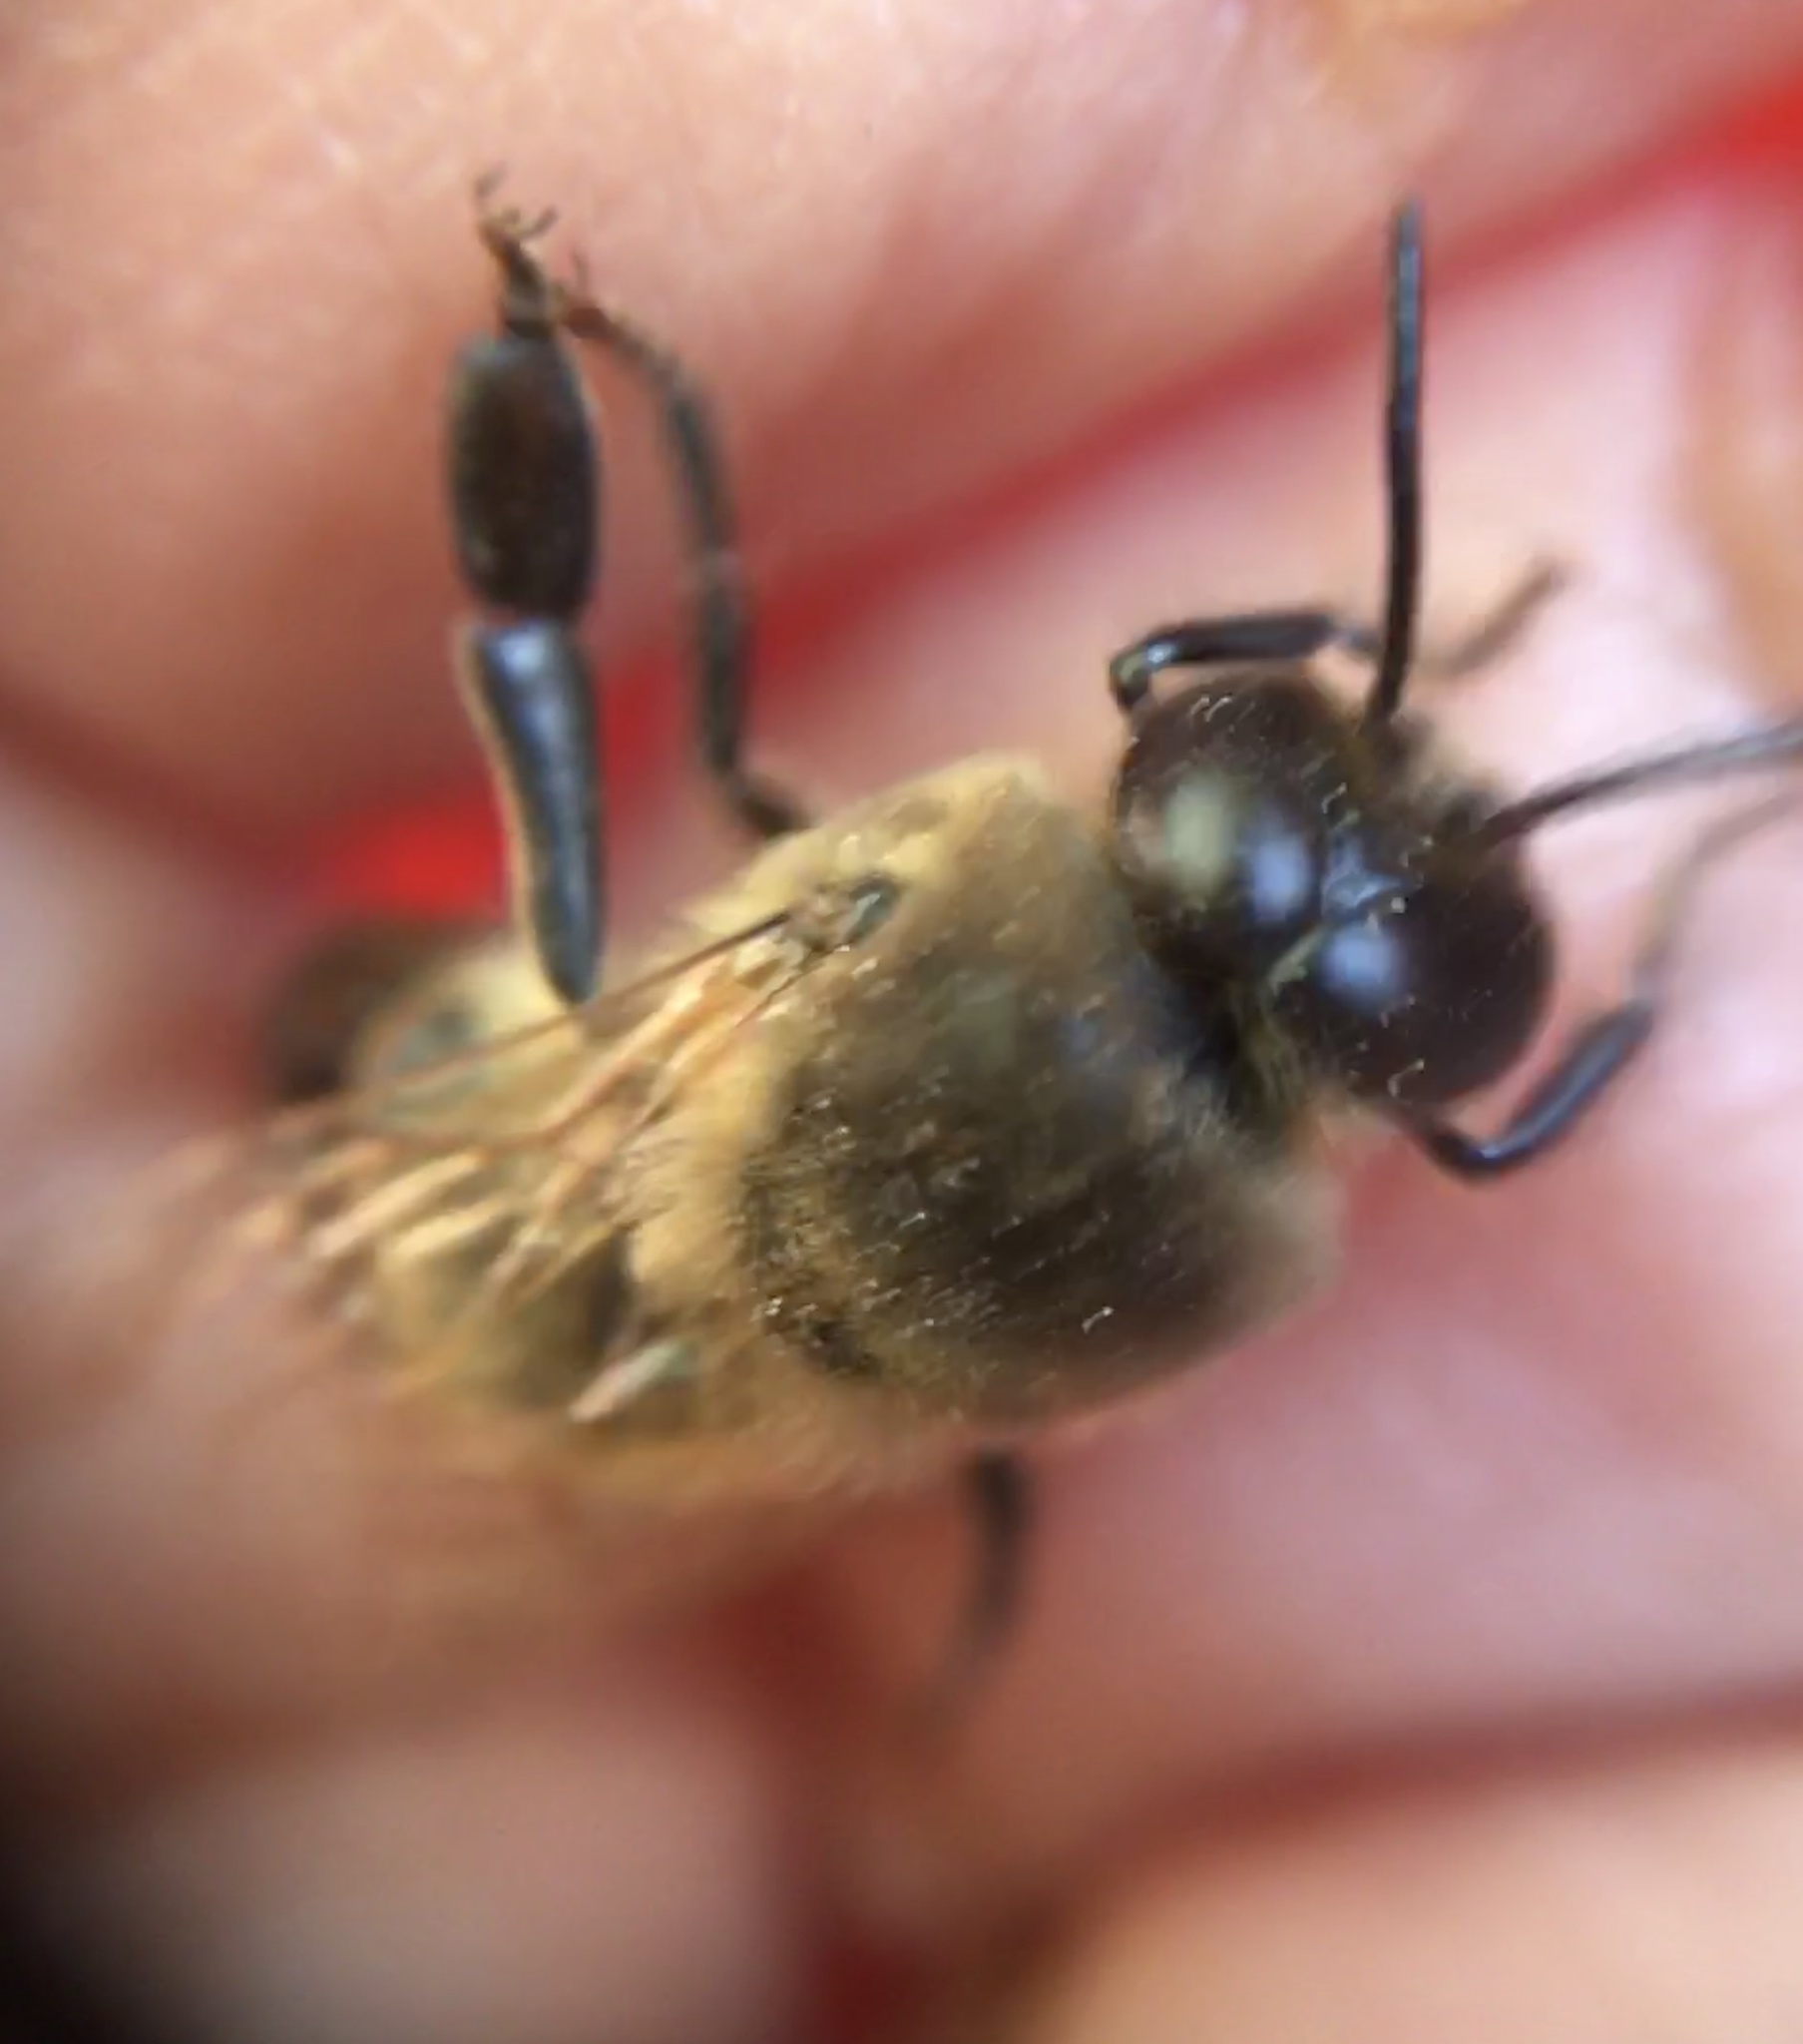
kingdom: Animalia
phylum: Arthropoda
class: Insecta
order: Hymenoptera
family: Apidae
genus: Apis
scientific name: Apis mellifera
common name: Honey bee
